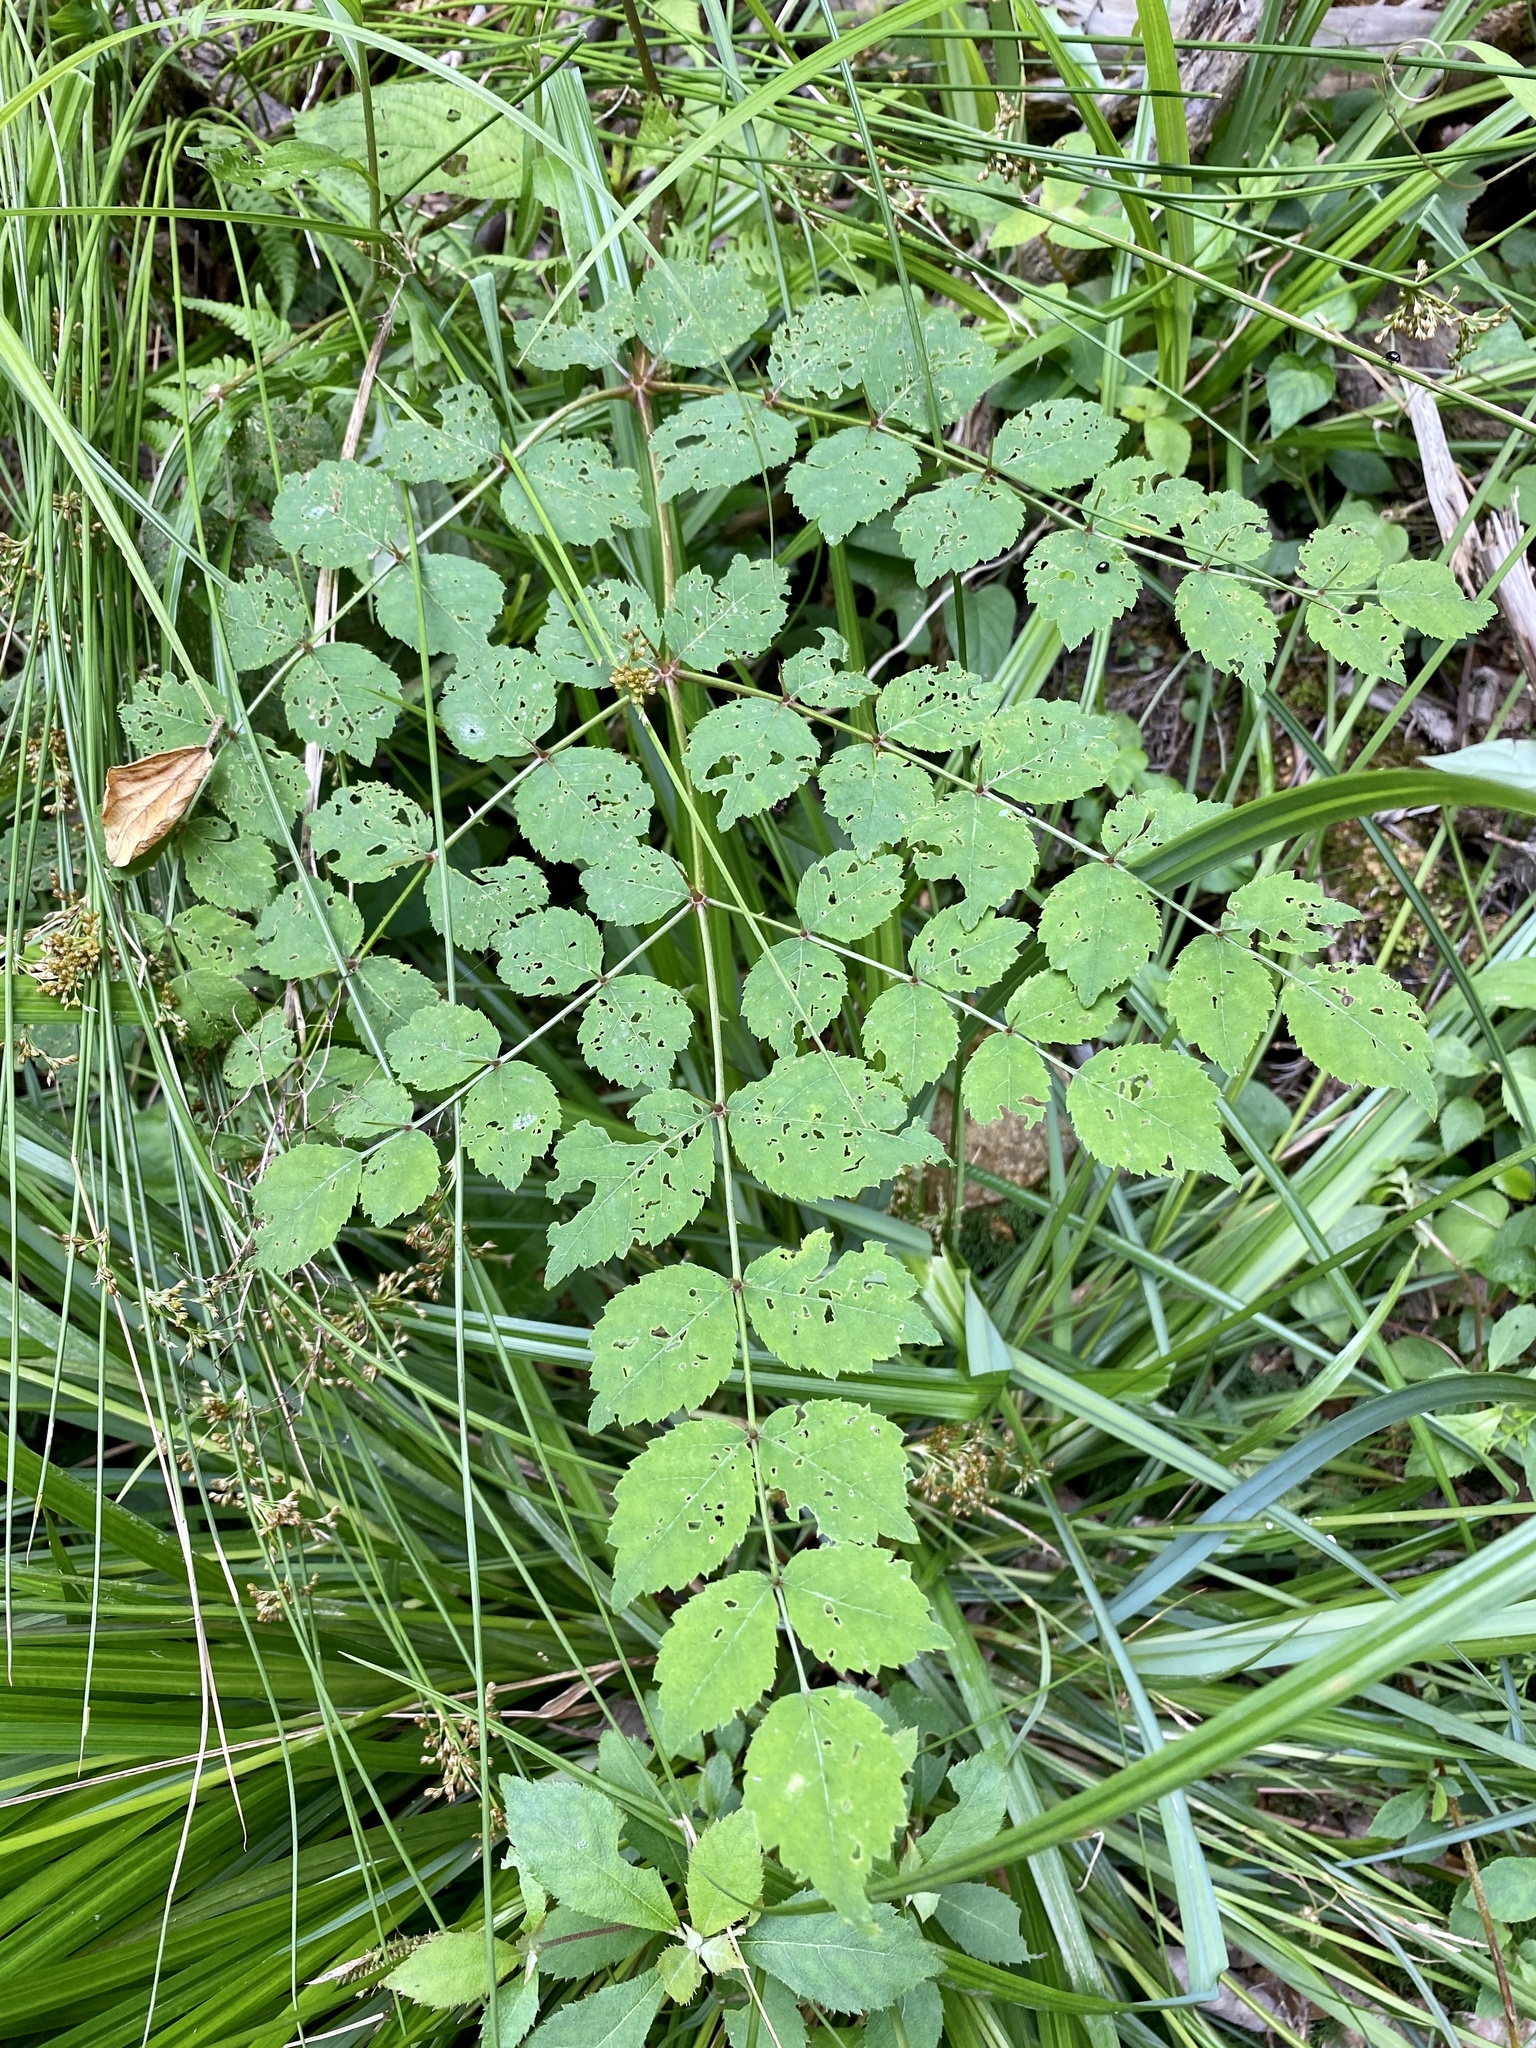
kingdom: Plantae
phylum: Tracheophyta
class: Magnoliopsida
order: Apiales
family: Araliaceae
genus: Aralia
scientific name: Aralia elata
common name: Japanese angelica-tree
